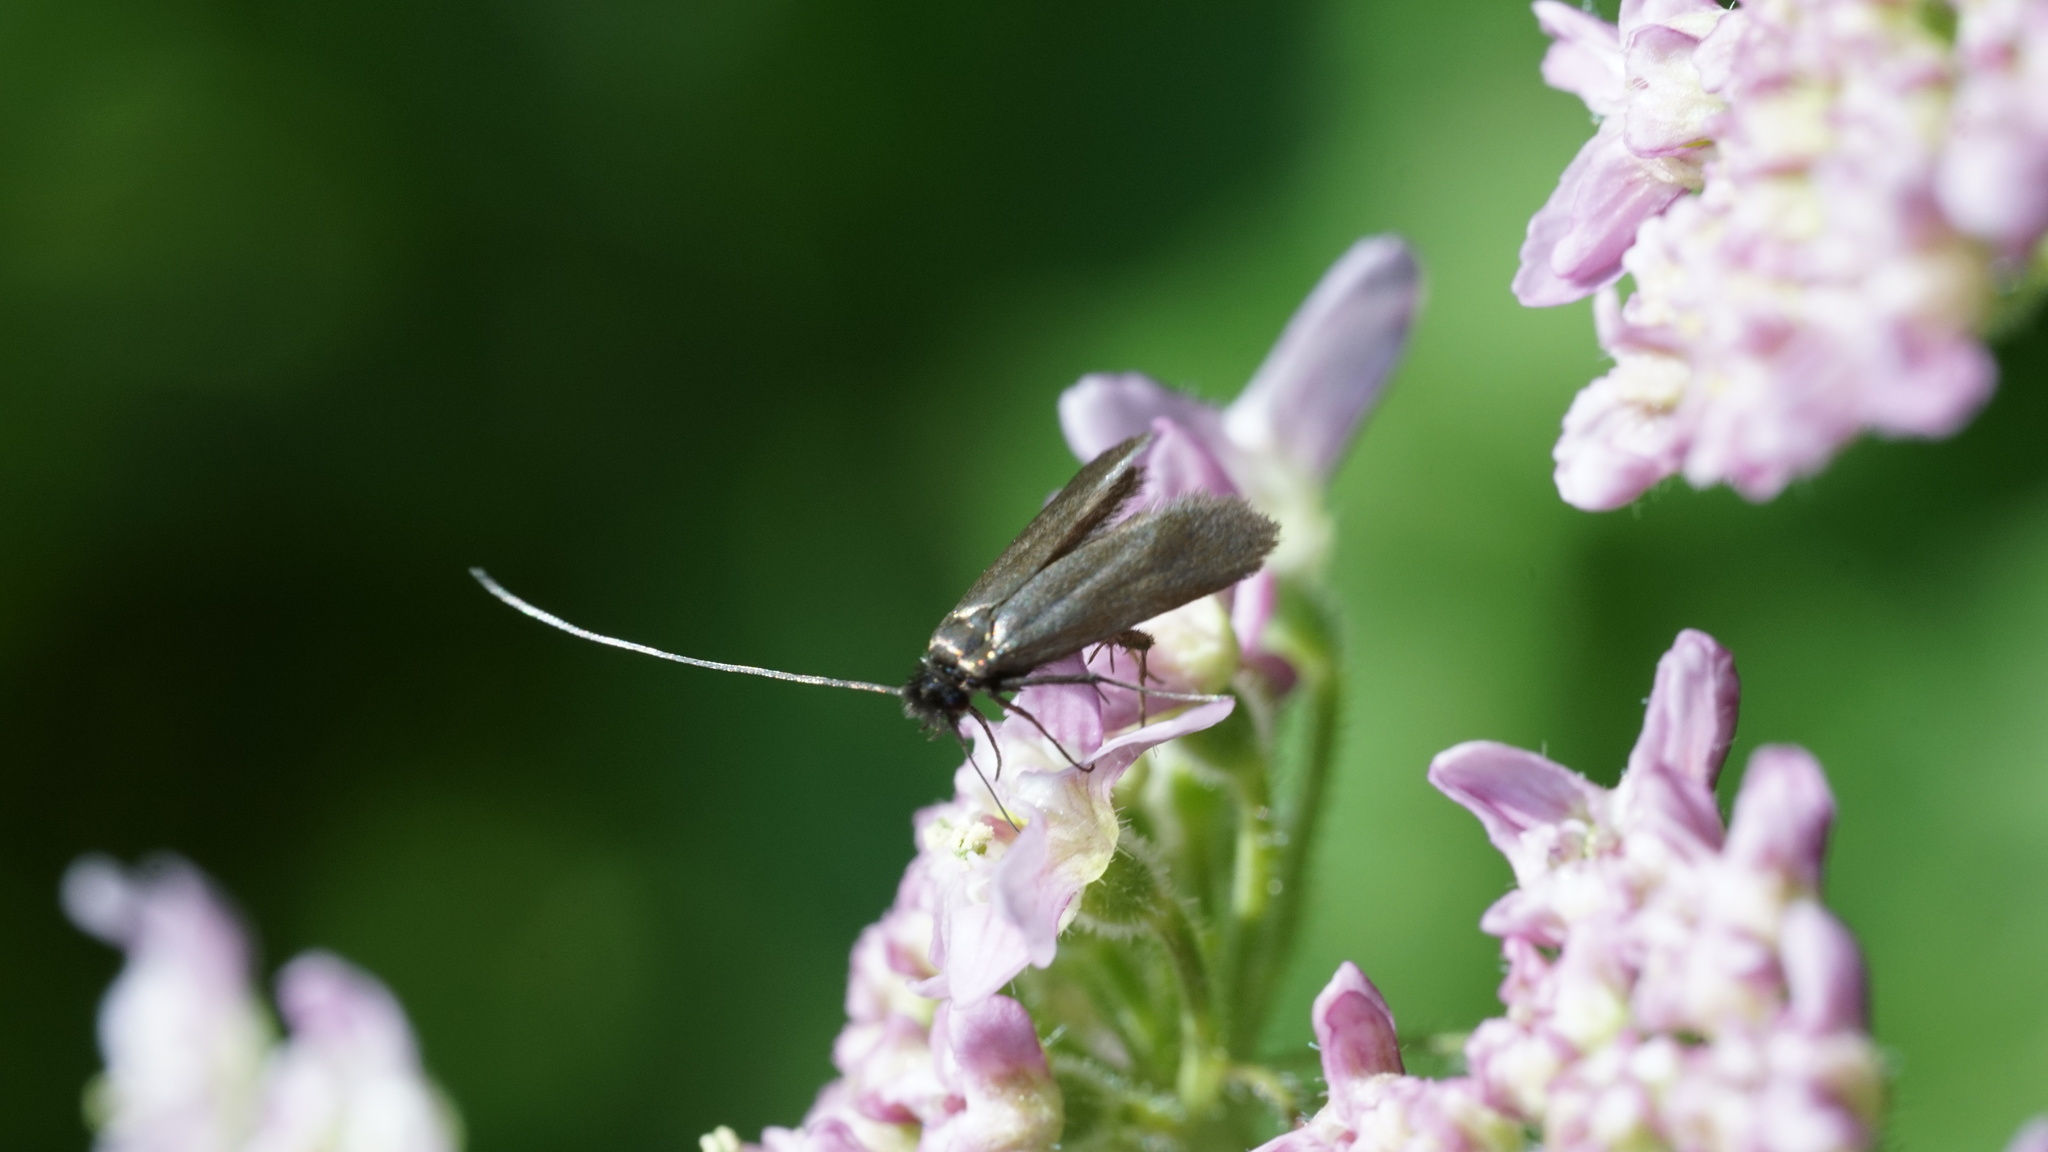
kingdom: Animalia
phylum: Arthropoda
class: Insecta
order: Lepidoptera
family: Adelidae
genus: Adela
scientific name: Adela viridella
